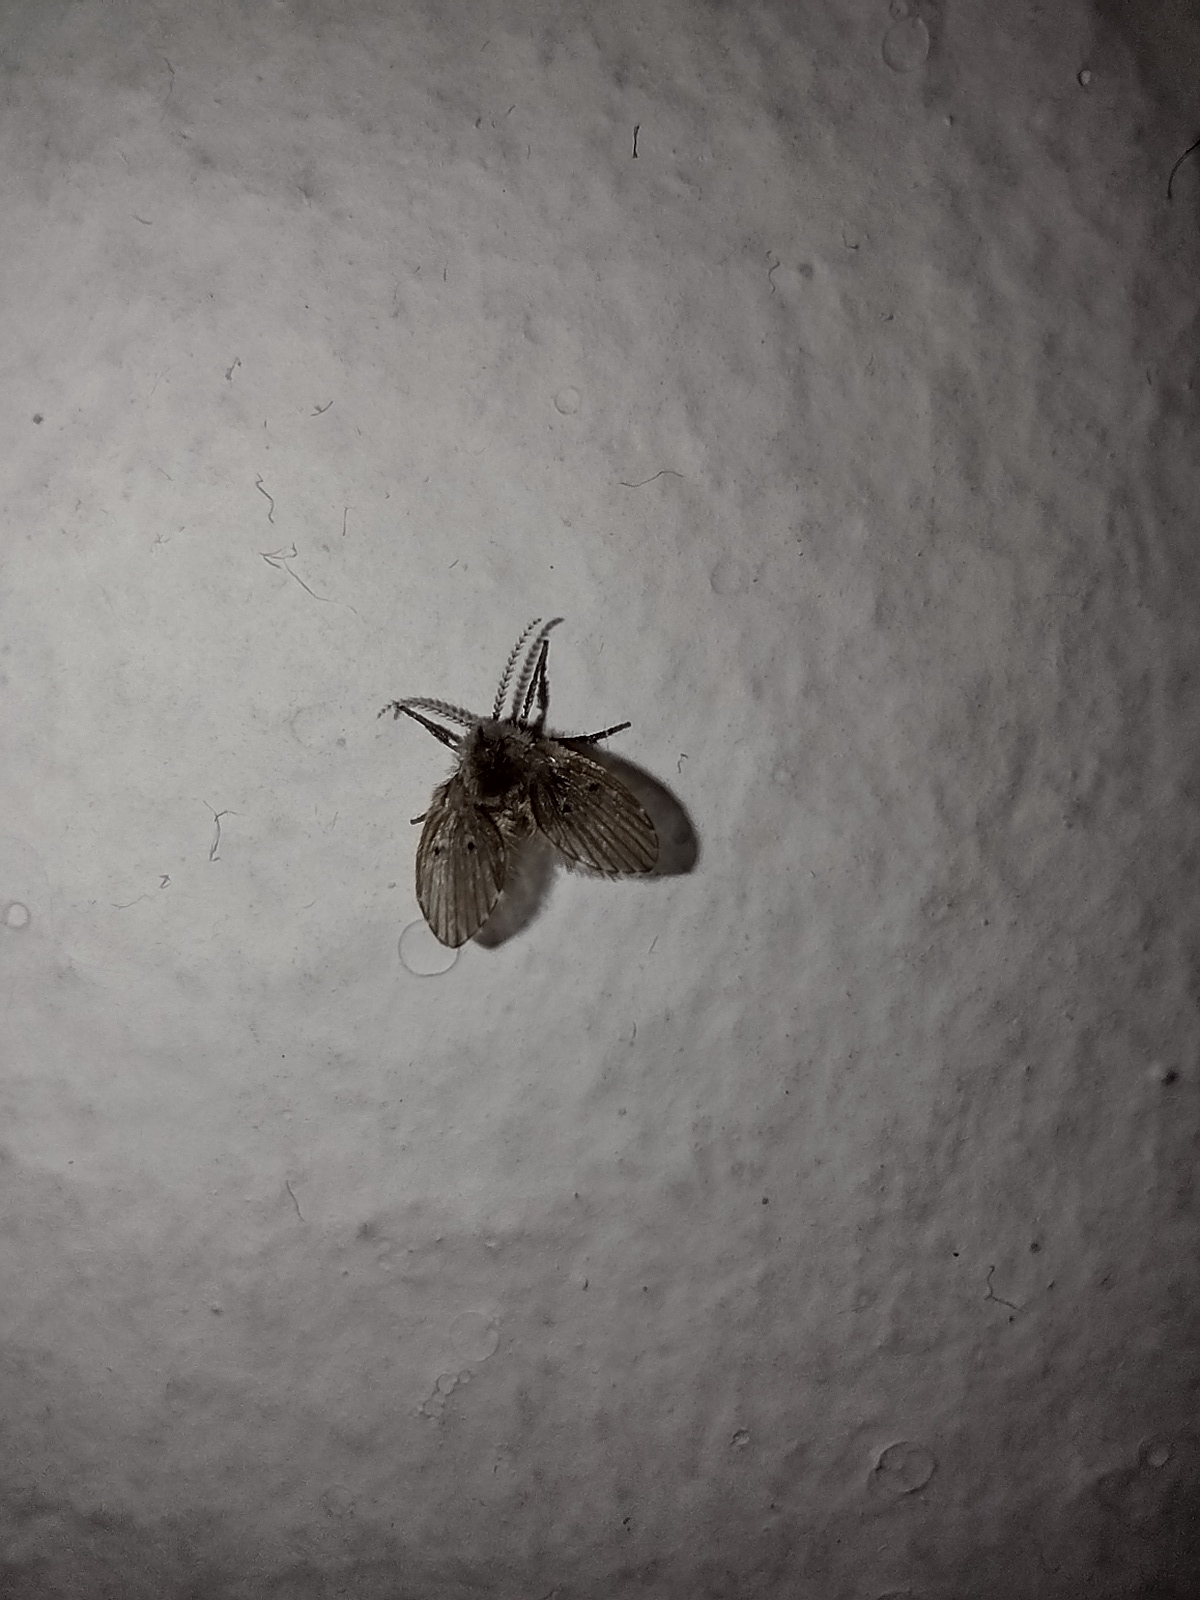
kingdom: Animalia
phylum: Arthropoda
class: Insecta
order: Diptera
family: Psychodidae
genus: Clogmia
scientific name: Clogmia albipunctatus
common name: White-spotted moth fly
